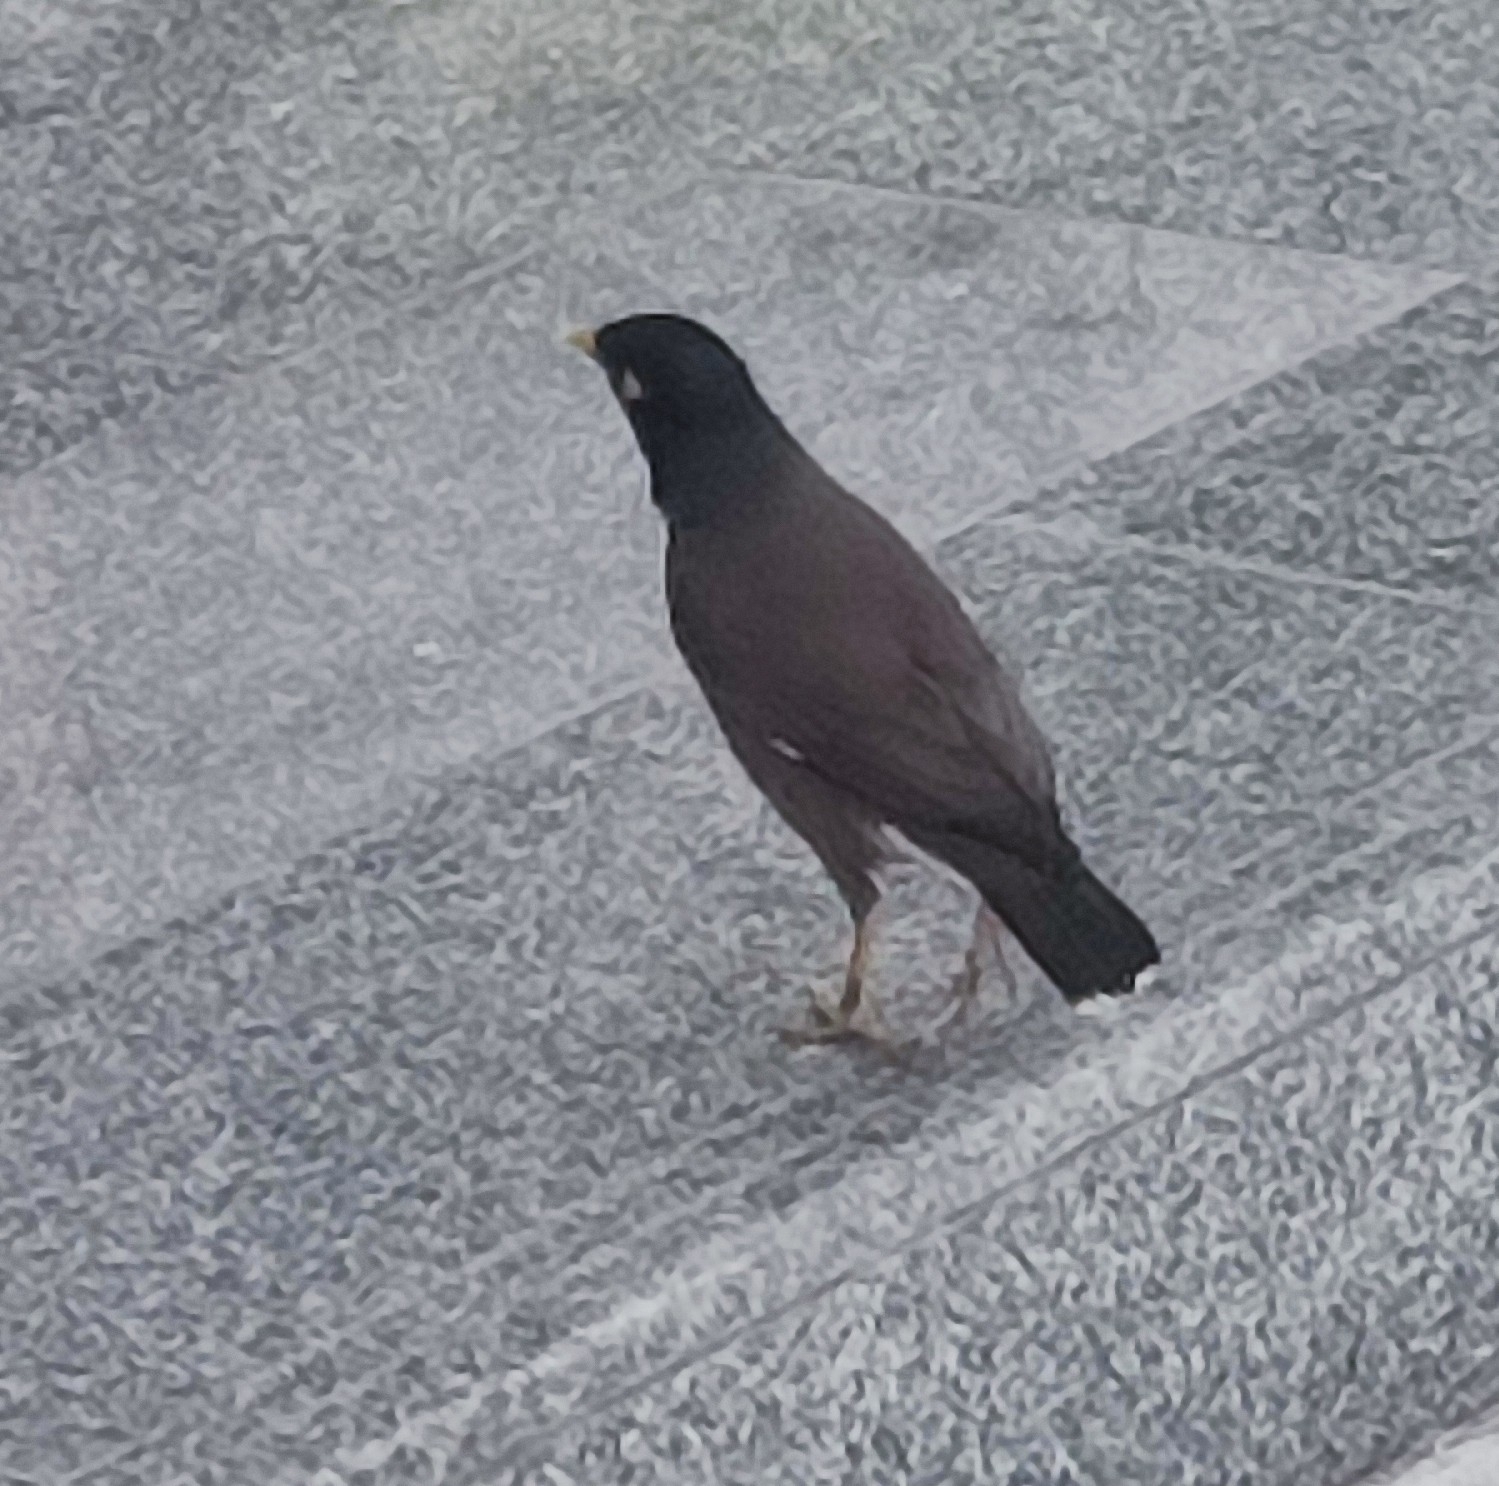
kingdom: Animalia
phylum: Chordata
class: Aves
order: Passeriformes
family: Sturnidae
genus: Acridotheres
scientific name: Acridotheres tristis
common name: Common myna
